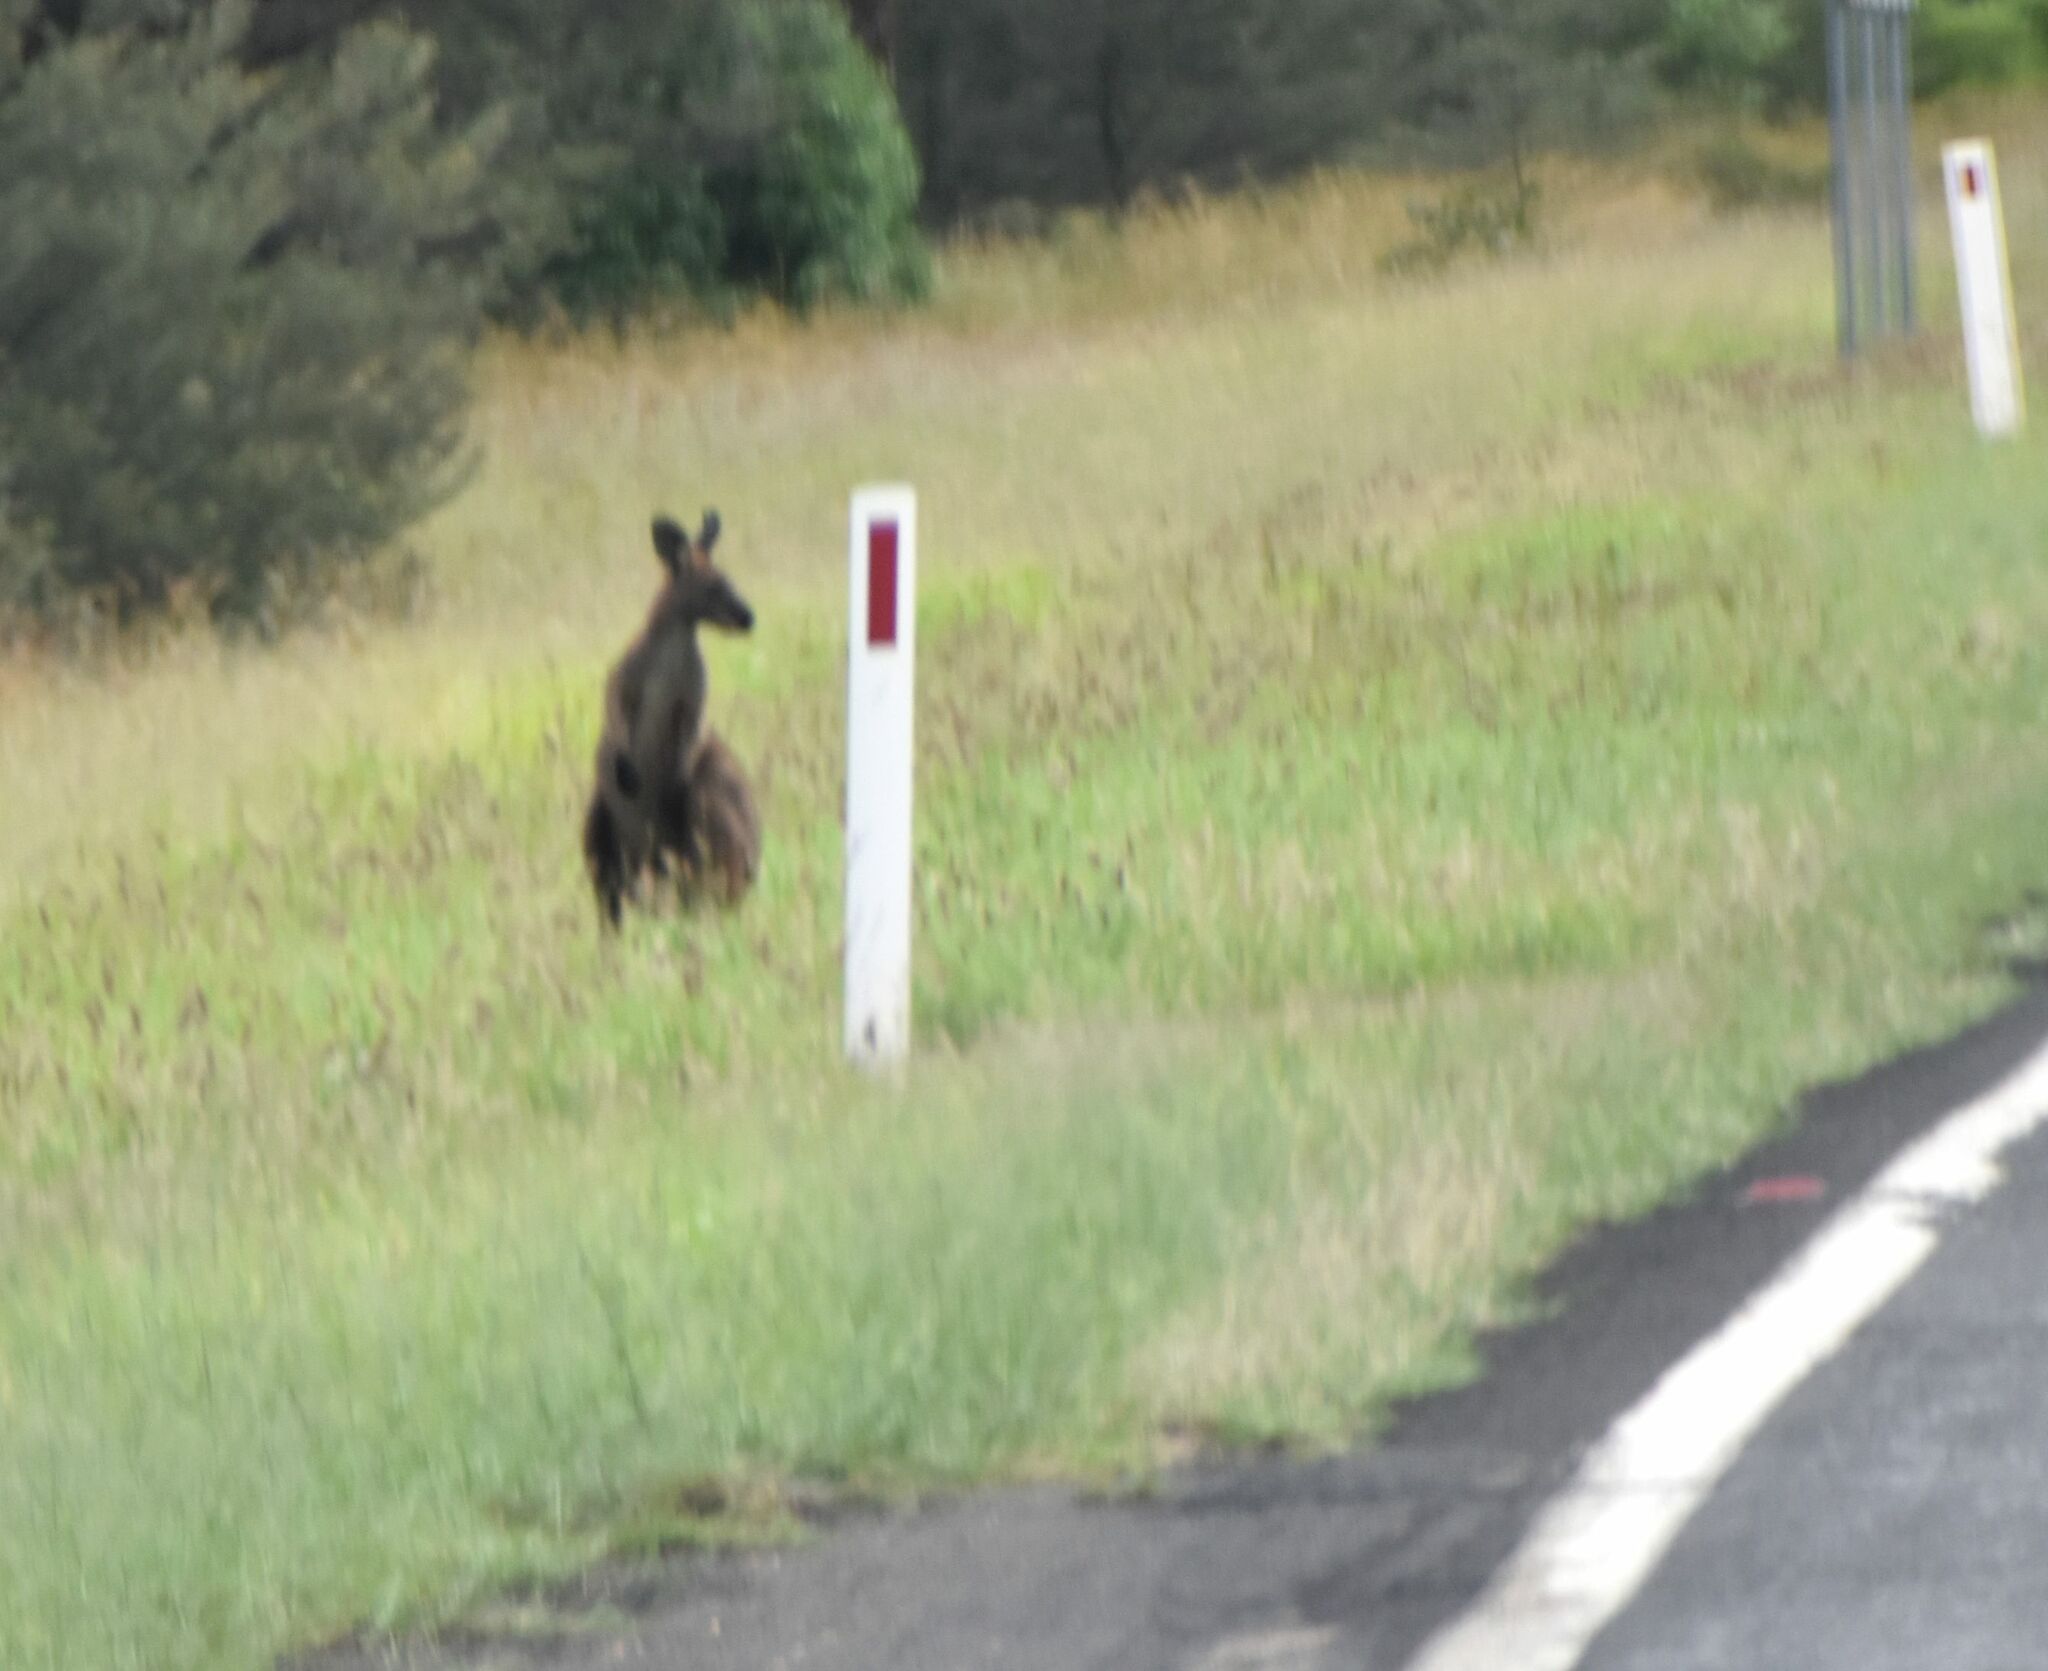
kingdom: Animalia
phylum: Chordata
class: Mammalia
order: Diprotodontia
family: Macropodidae
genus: Macropus
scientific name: Macropus giganteus
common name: Eastern grey kangaroo
